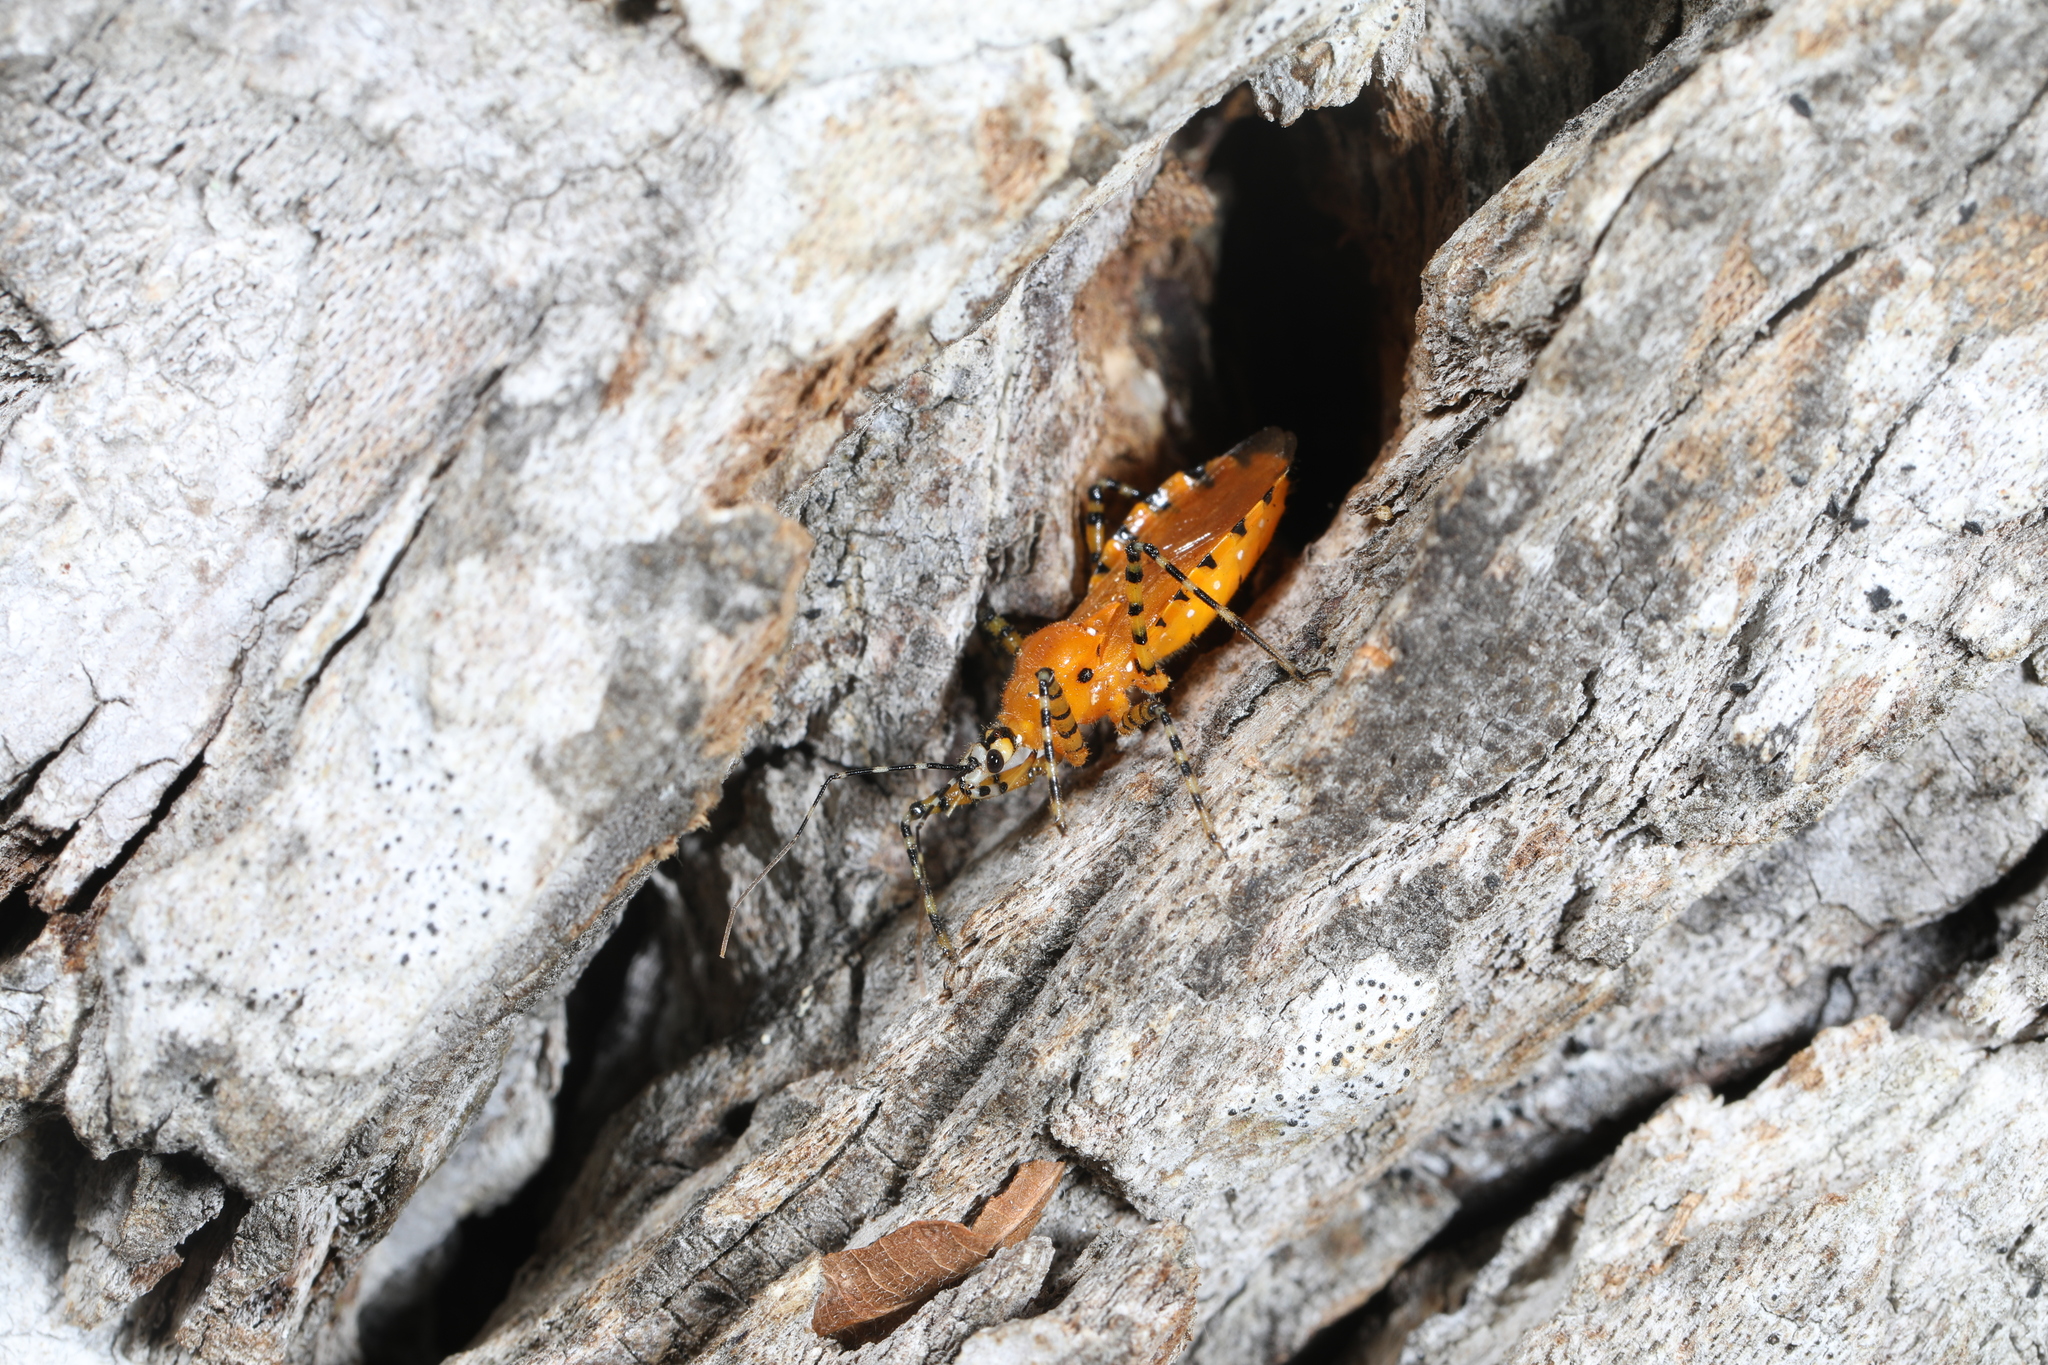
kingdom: Animalia
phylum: Arthropoda
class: Insecta
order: Hemiptera
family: Reduviidae
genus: Pselliopus
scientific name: Pselliopus barberi
